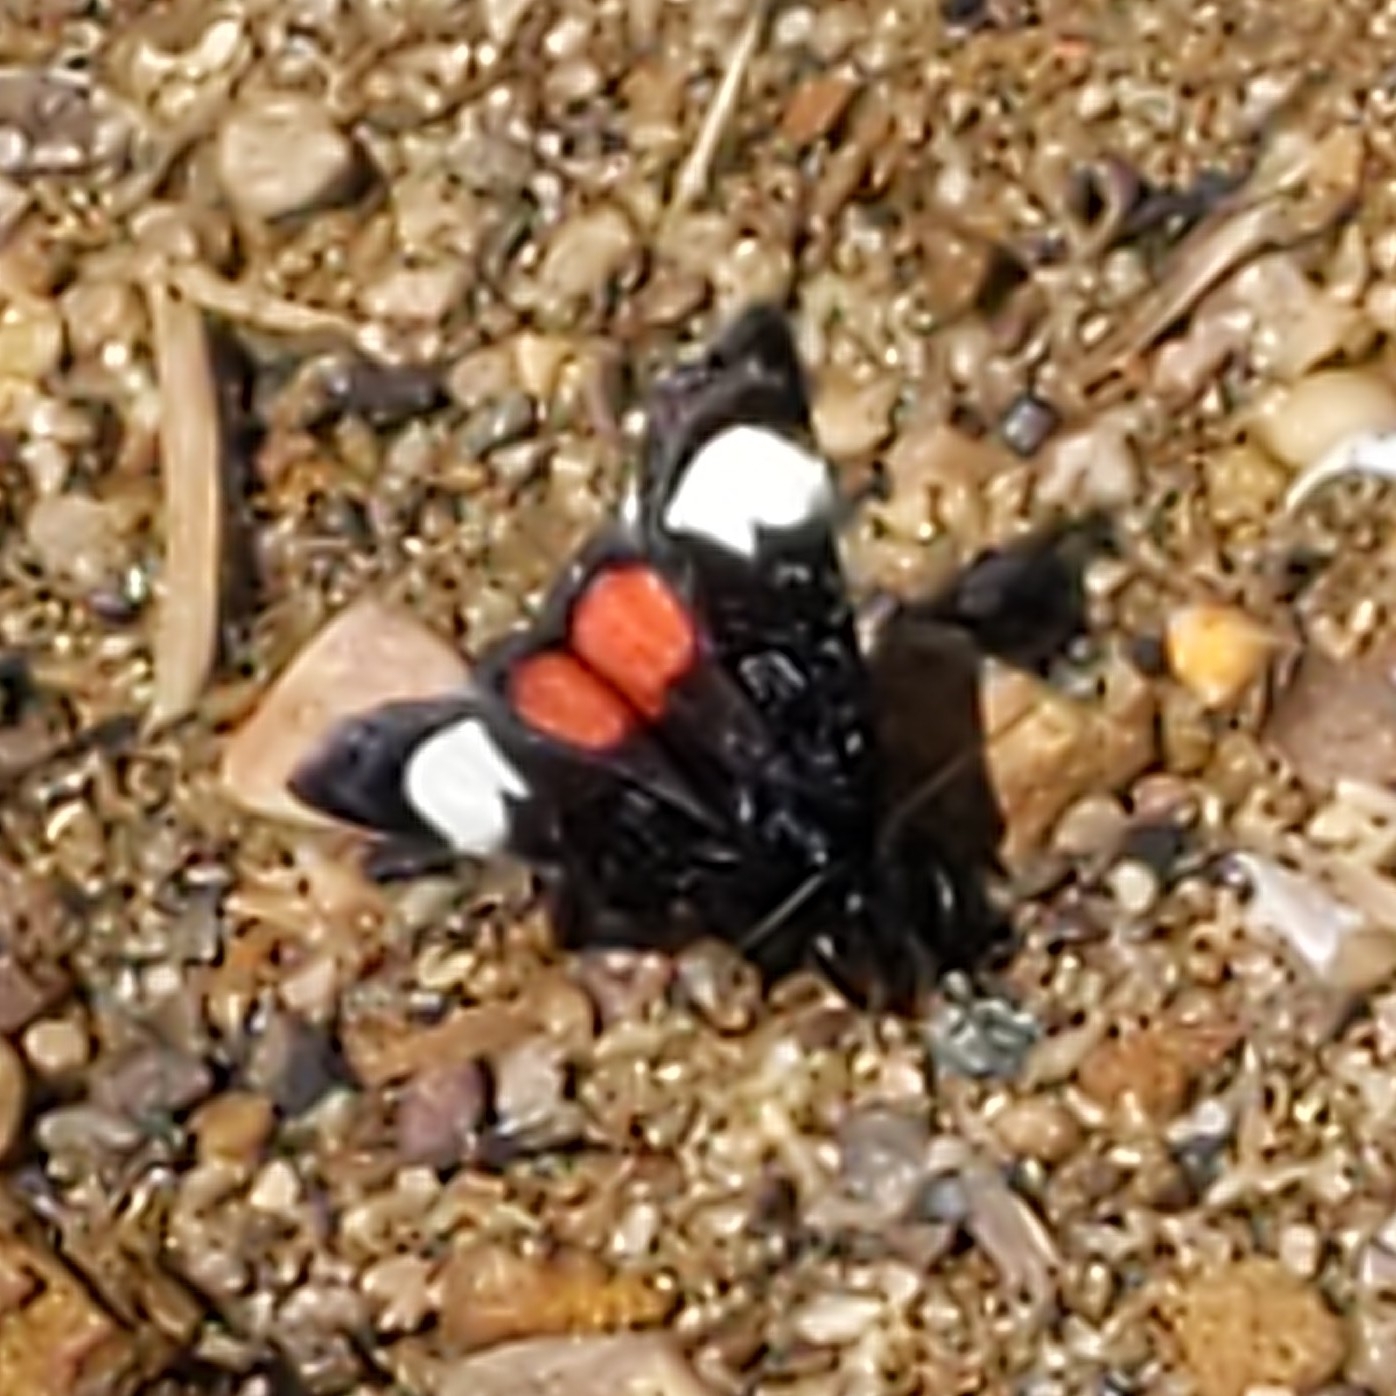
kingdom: Animalia
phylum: Arthropoda
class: Insecta
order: Lepidoptera
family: Noctuidae
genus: Psychomorpha
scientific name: Psychomorpha epimenis
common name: Grapevine epimenis moth
